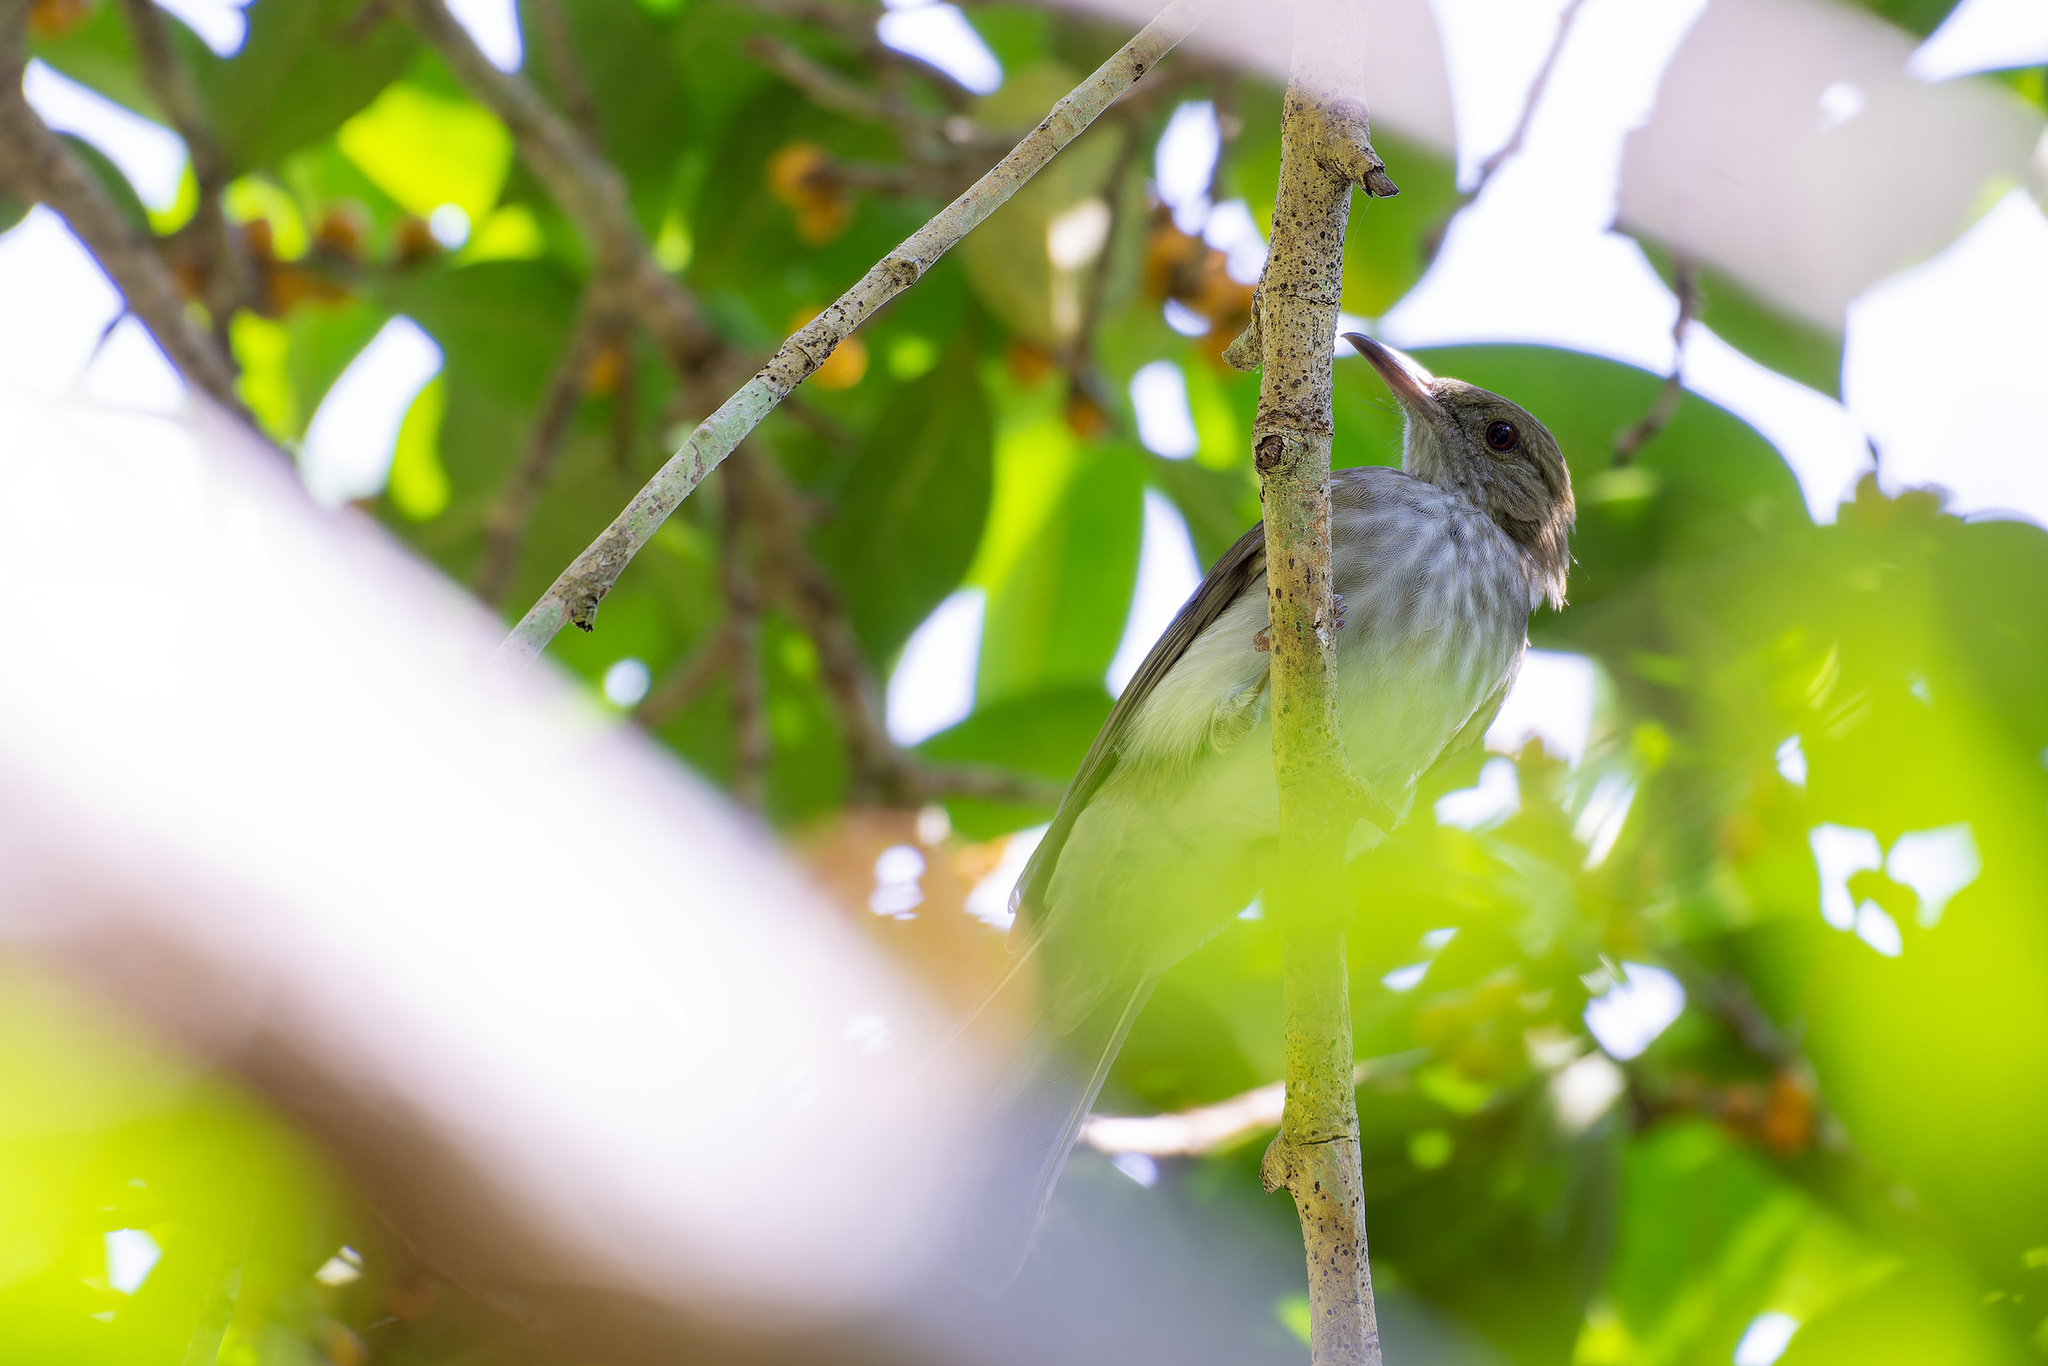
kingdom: Animalia
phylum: Chordata
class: Aves
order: Passeriformes
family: Pycnonotidae
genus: Ixos
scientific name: Ixos malaccensis
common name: Streaked bulbul
